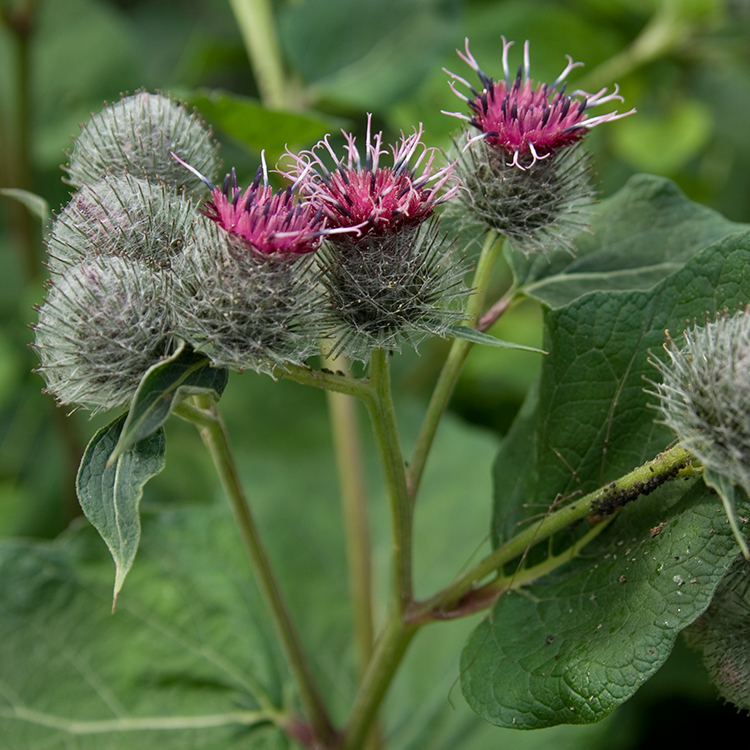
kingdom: Plantae
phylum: Tracheophyta
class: Magnoliopsida
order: Asterales
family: Asteraceae
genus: Arctium
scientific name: Arctium tomentosum
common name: Woolly burdock
